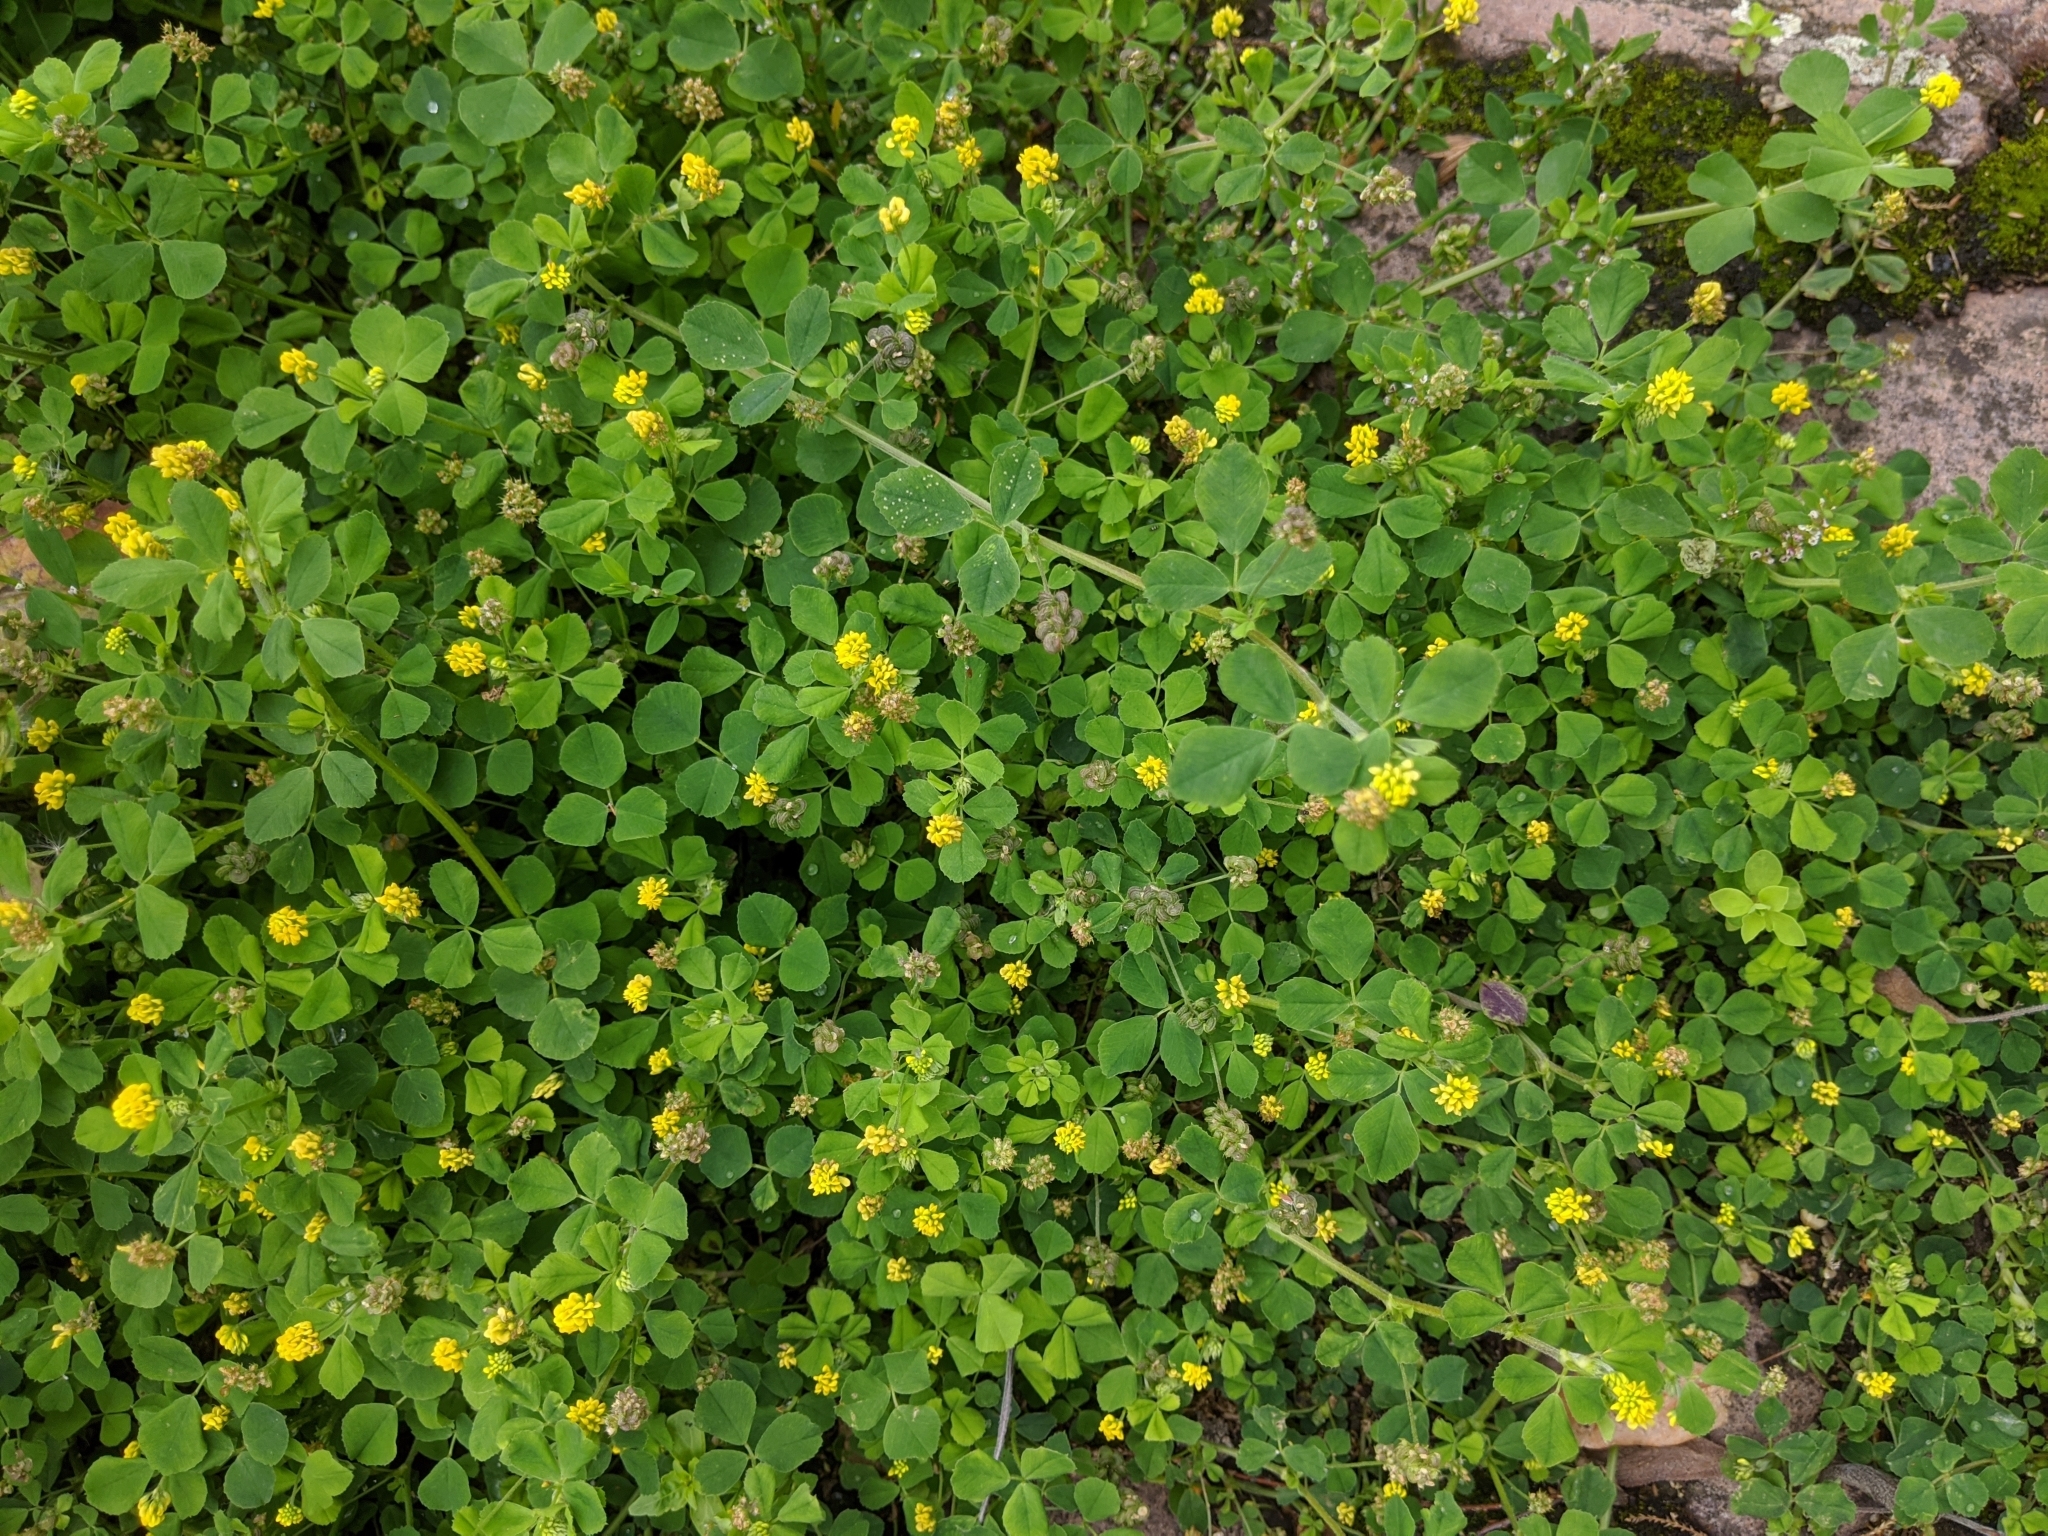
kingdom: Plantae
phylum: Tracheophyta
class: Magnoliopsida
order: Fabales
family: Fabaceae
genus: Medicago
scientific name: Medicago lupulina
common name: Black medick
